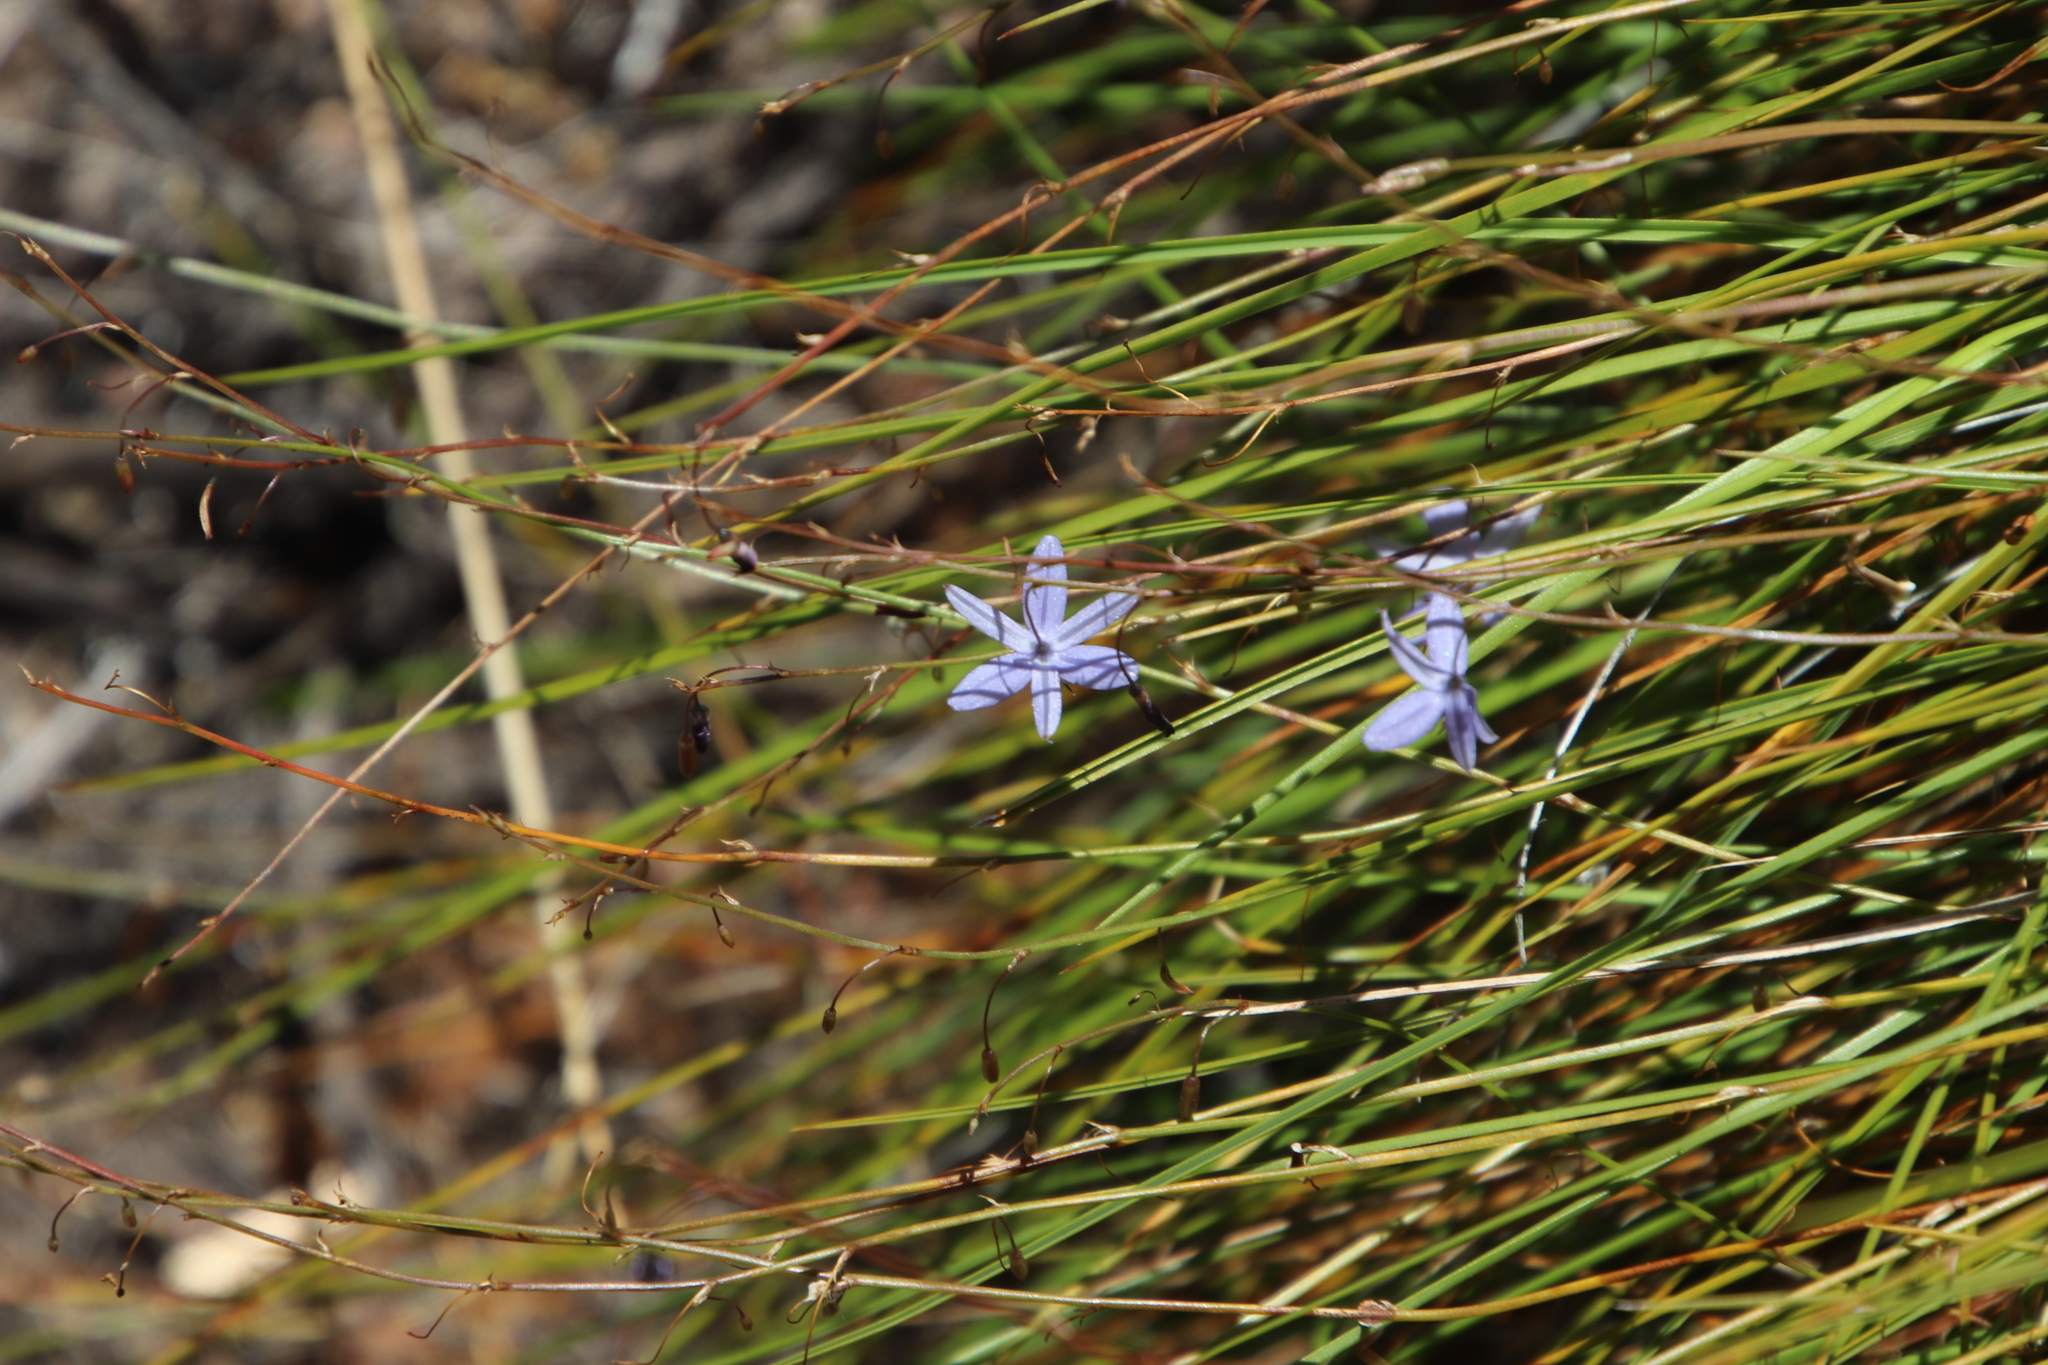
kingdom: Plantae
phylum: Tracheophyta
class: Liliopsida
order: Asparagales
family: Asphodelaceae
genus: Caesia
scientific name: Caesia contorta
